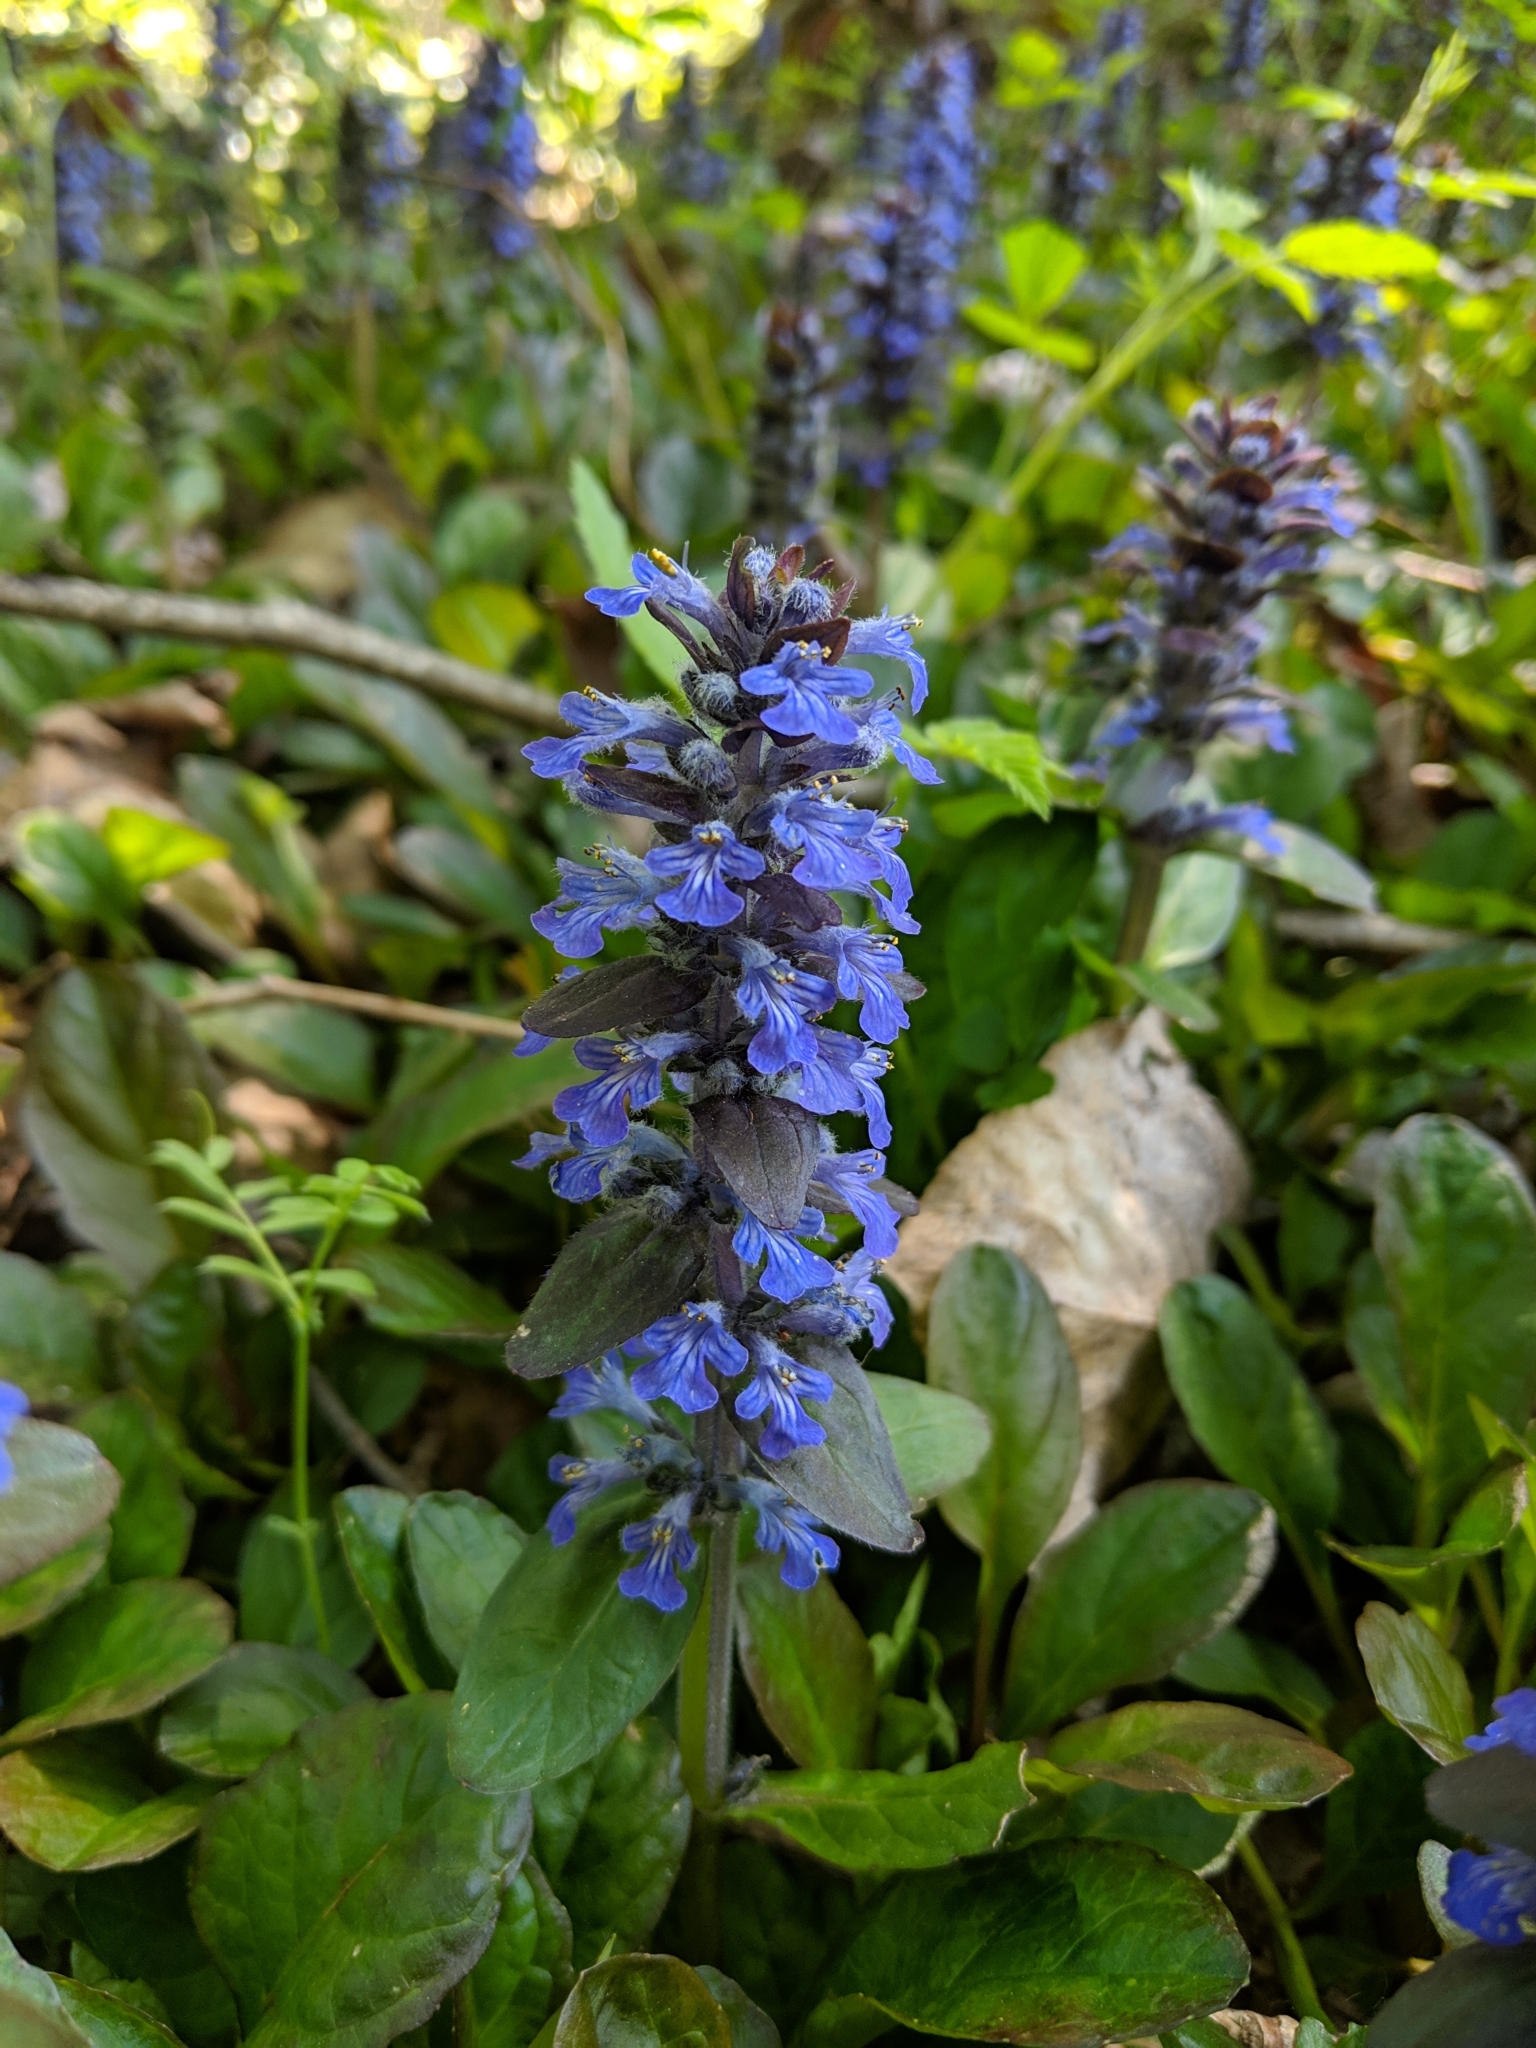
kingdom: Plantae
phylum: Tracheophyta
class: Magnoliopsida
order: Lamiales
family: Lamiaceae
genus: Ajuga
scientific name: Ajuga reptans
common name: Bugle
